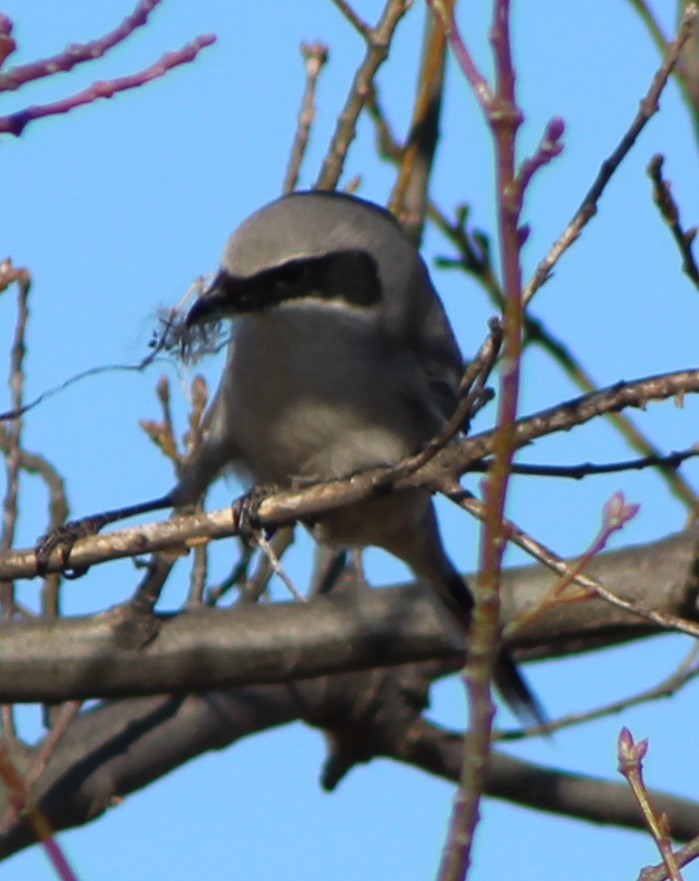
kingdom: Animalia
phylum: Chordata
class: Aves
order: Passeriformes
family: Laniidae
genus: Lanius
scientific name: Lanius ludovicianus
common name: Loggerhead shrike
